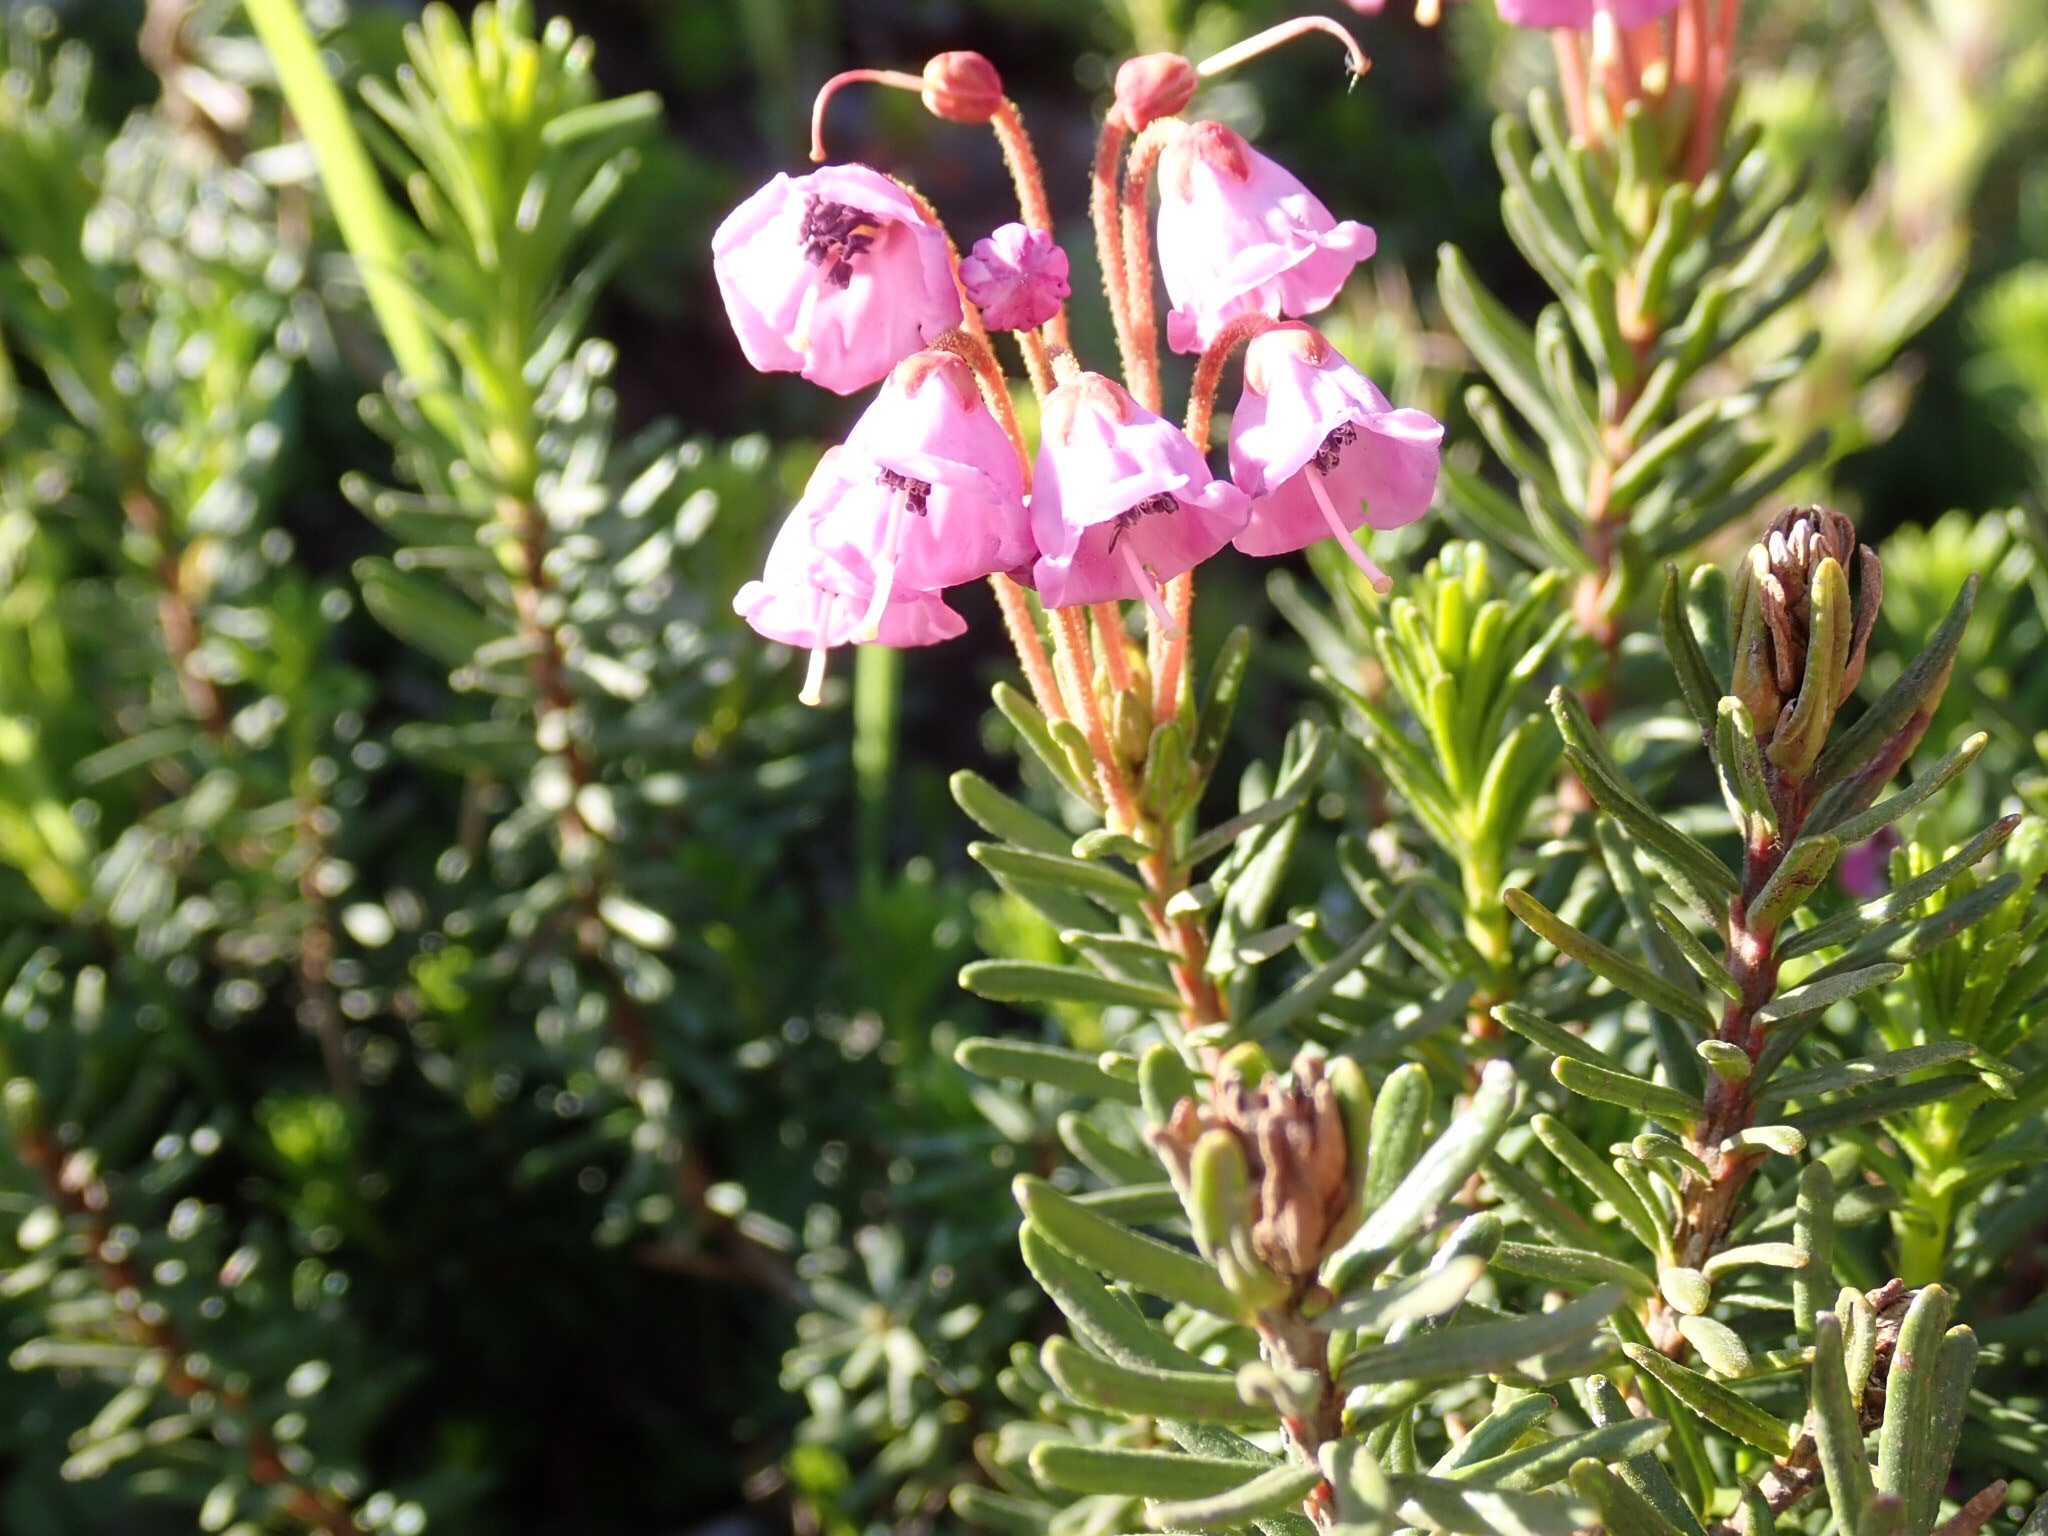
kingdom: Plantae
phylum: Tracheophyta
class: Magnoliopsida
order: Ericales
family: Ericaceae
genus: Phyllodoce
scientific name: Phyllodoce empetriformis
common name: Pink mountain heather
